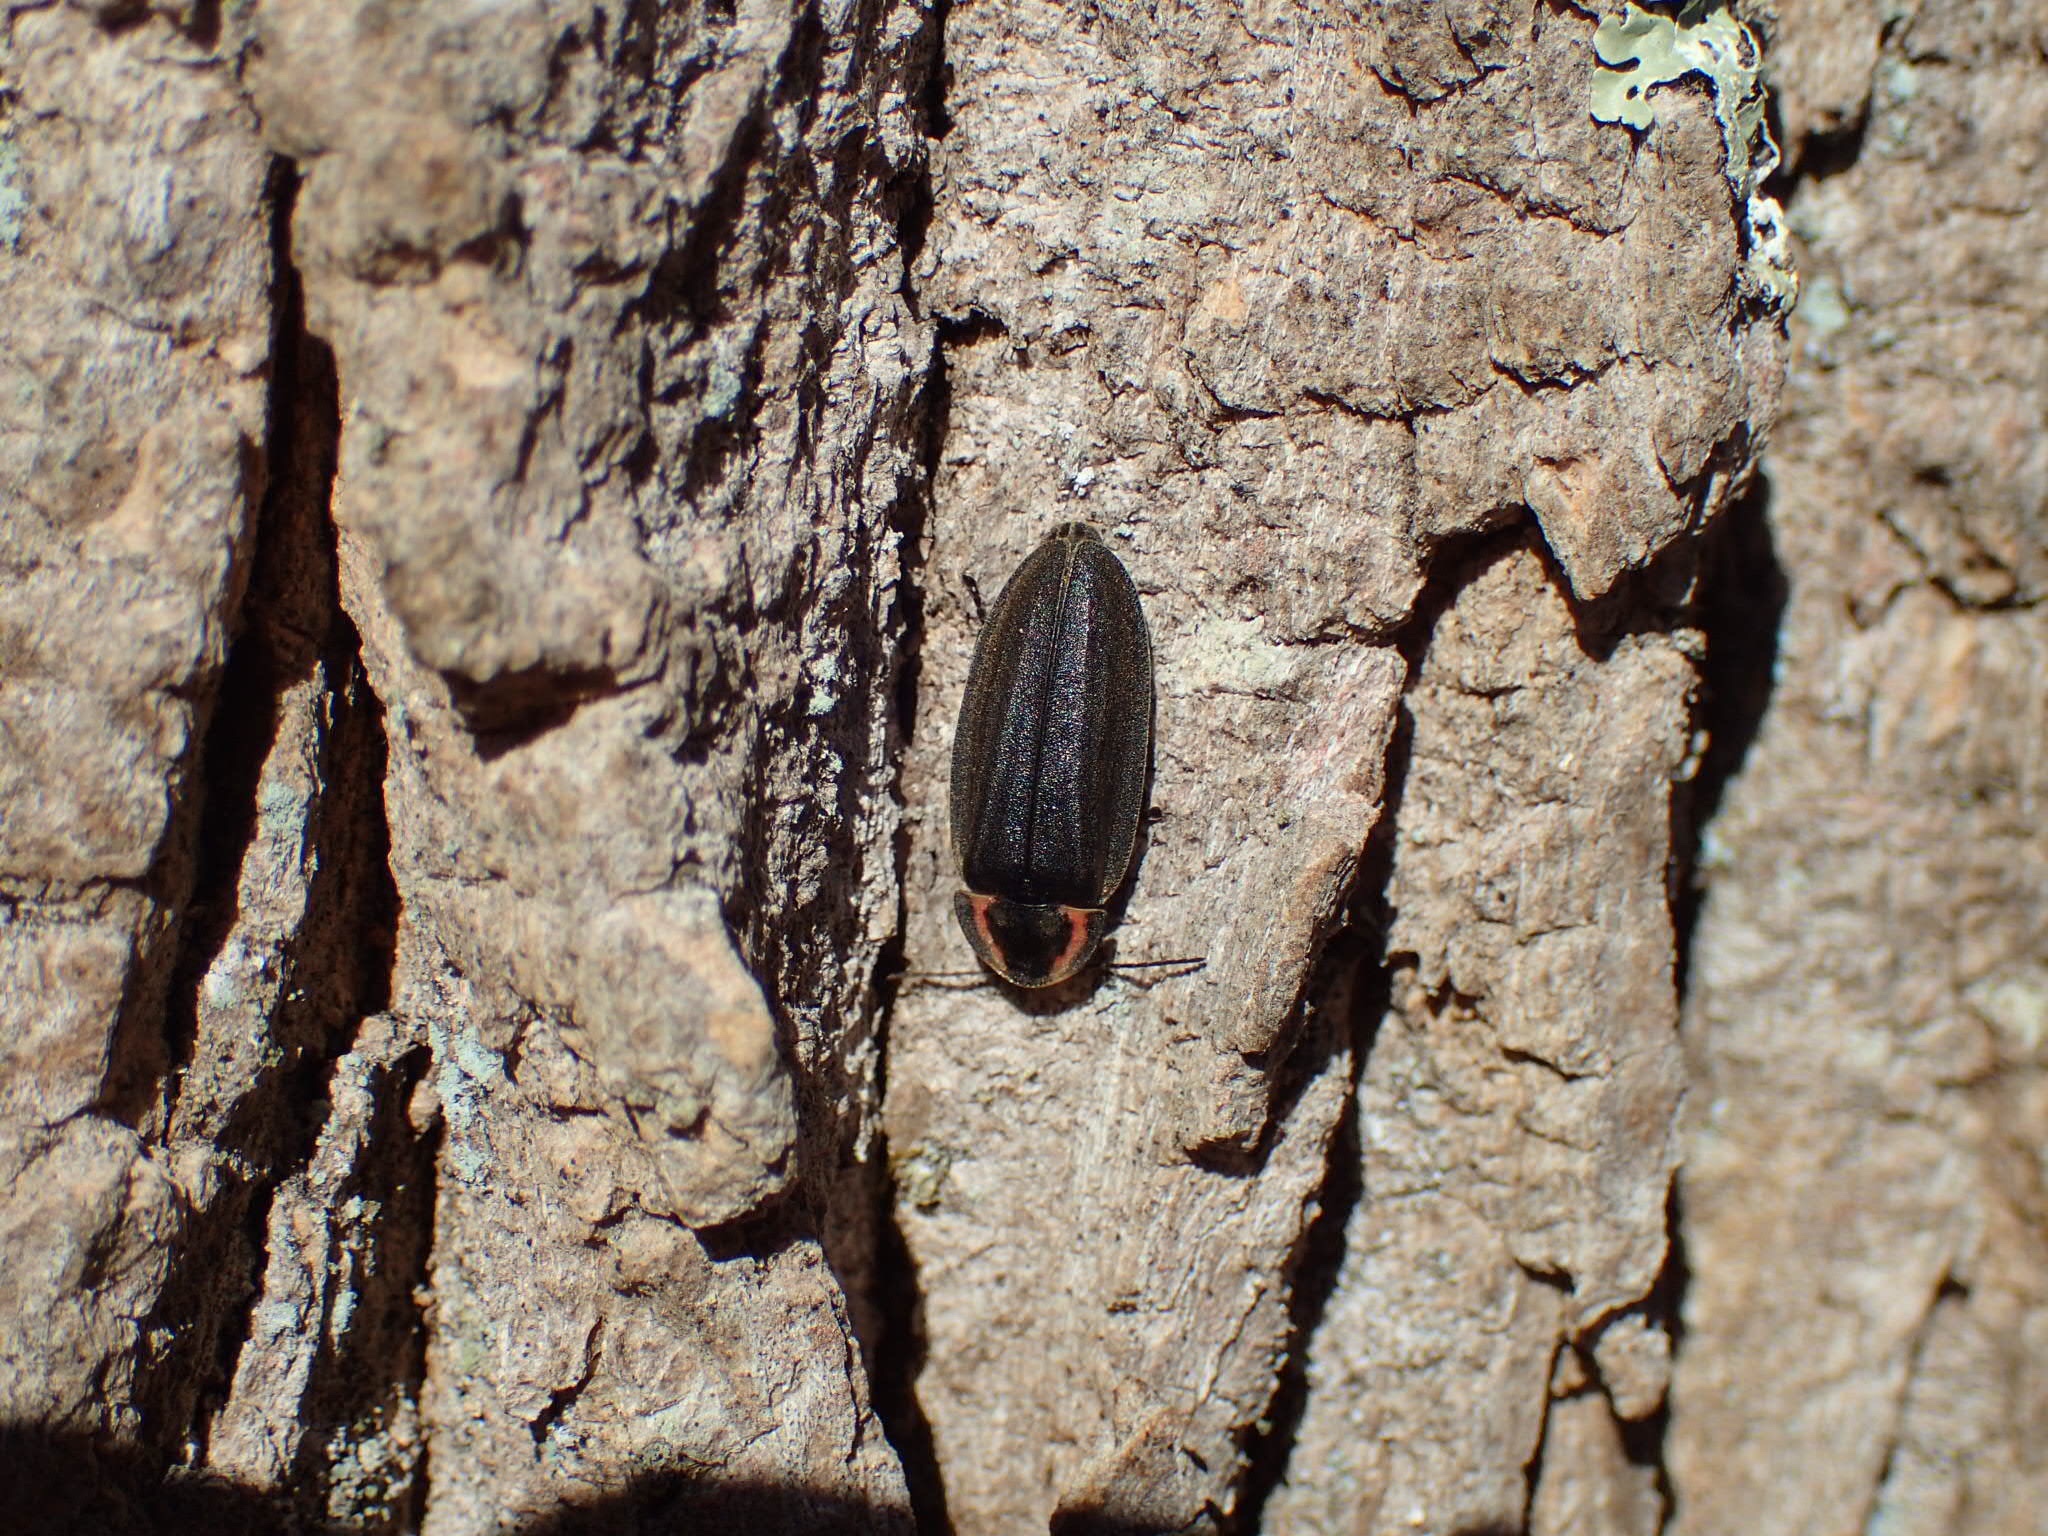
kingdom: Animalia
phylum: Arthropoda
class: Insecta
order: Coleoptera
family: Lampyridae
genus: Photinus
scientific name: Photinus corrusca
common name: Winter firefly
